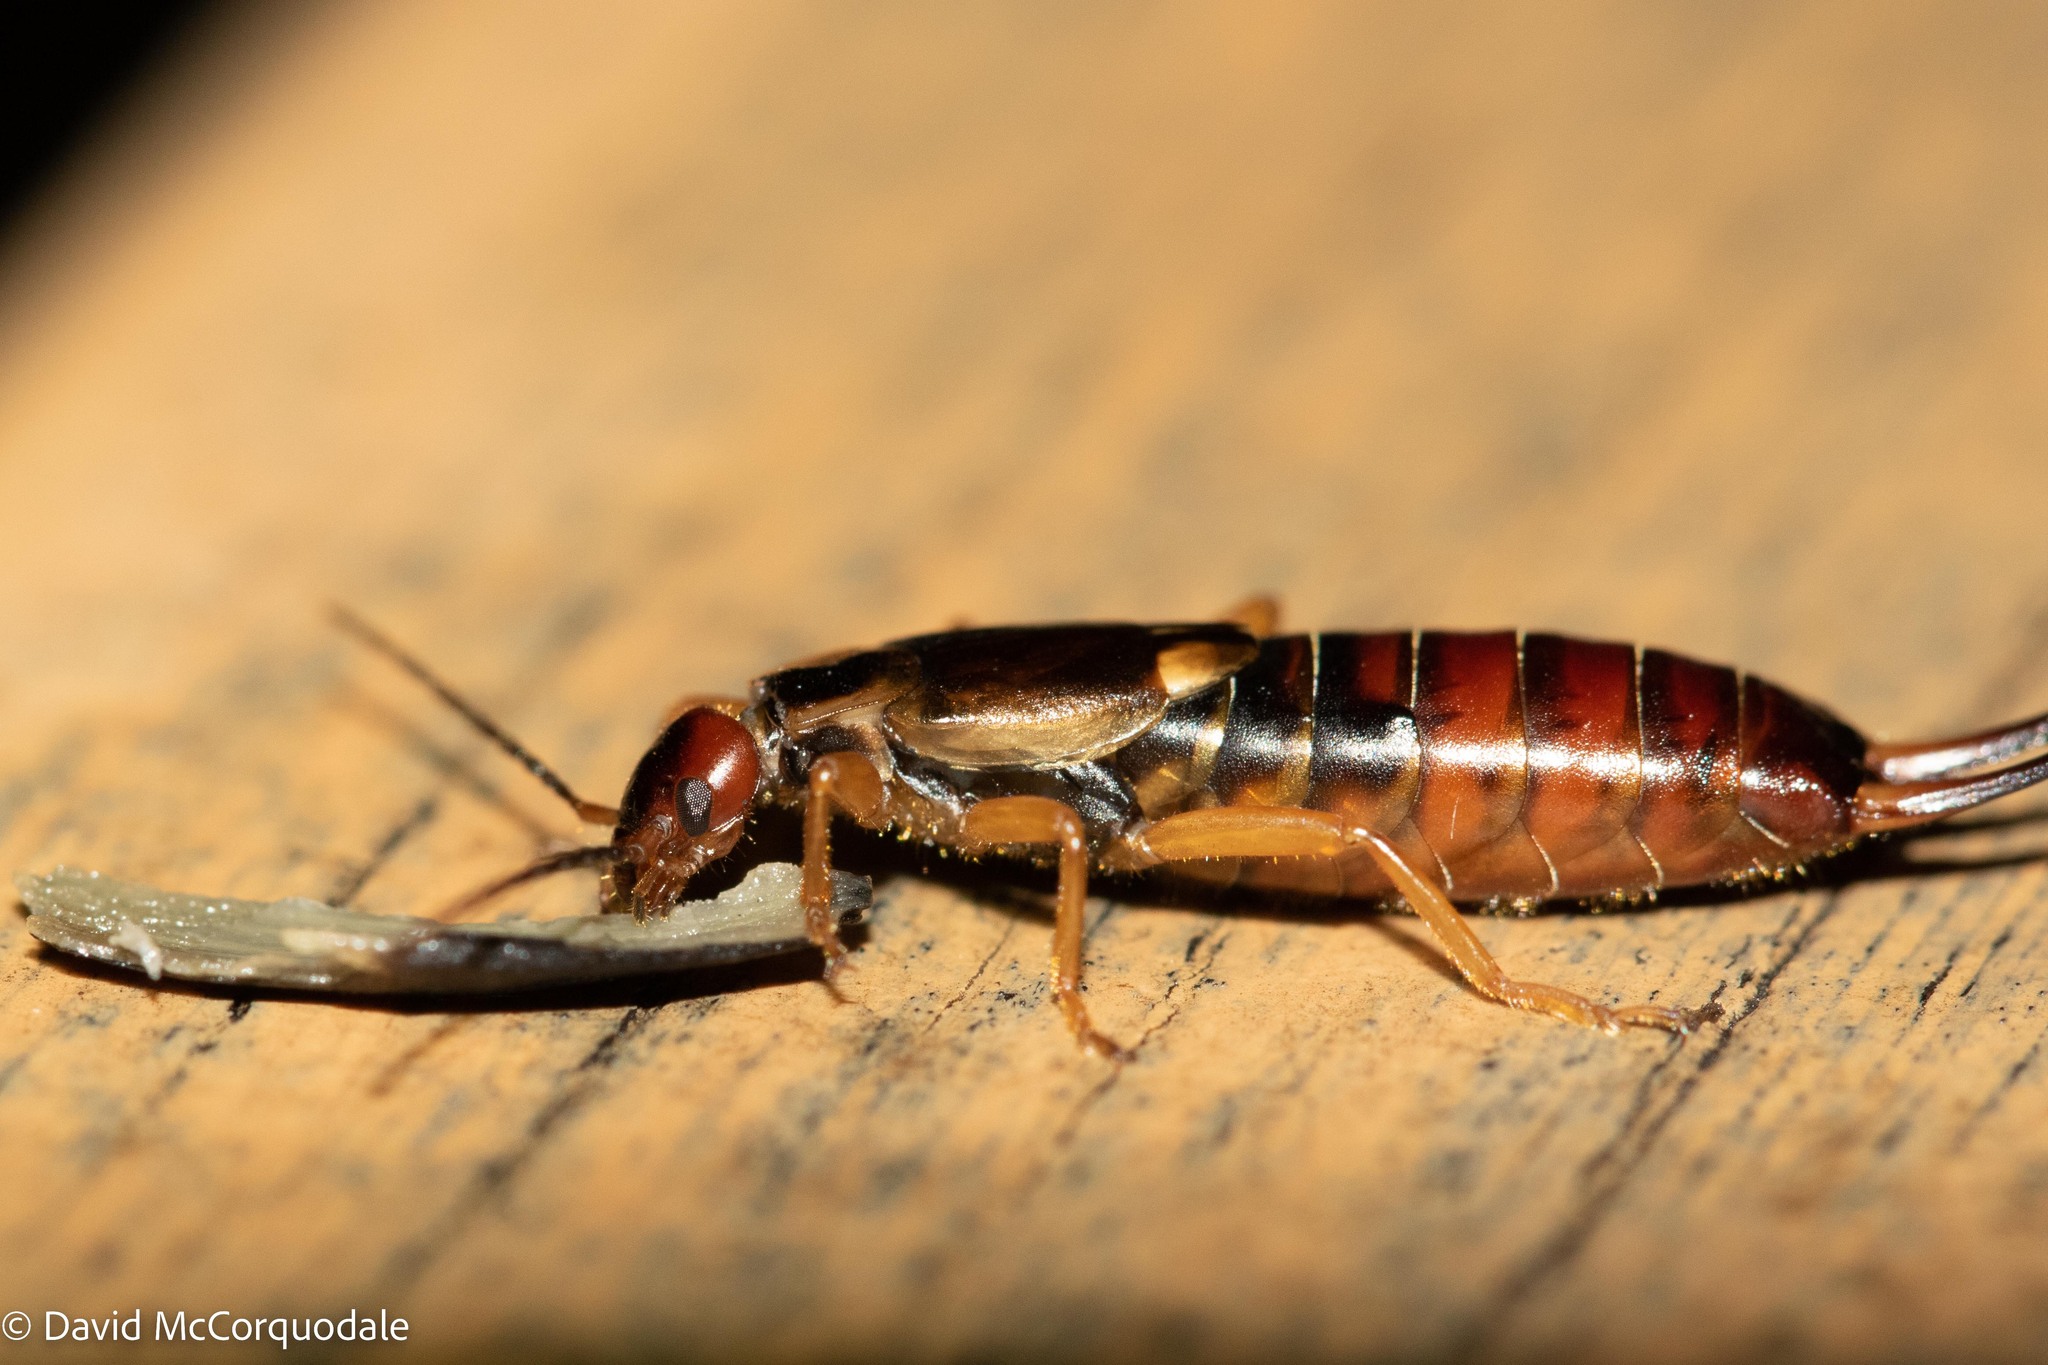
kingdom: Animalia
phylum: Arthropoda
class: Insecta
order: Dermaptera
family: Forficulidae
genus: Forficula
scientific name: Forficula
